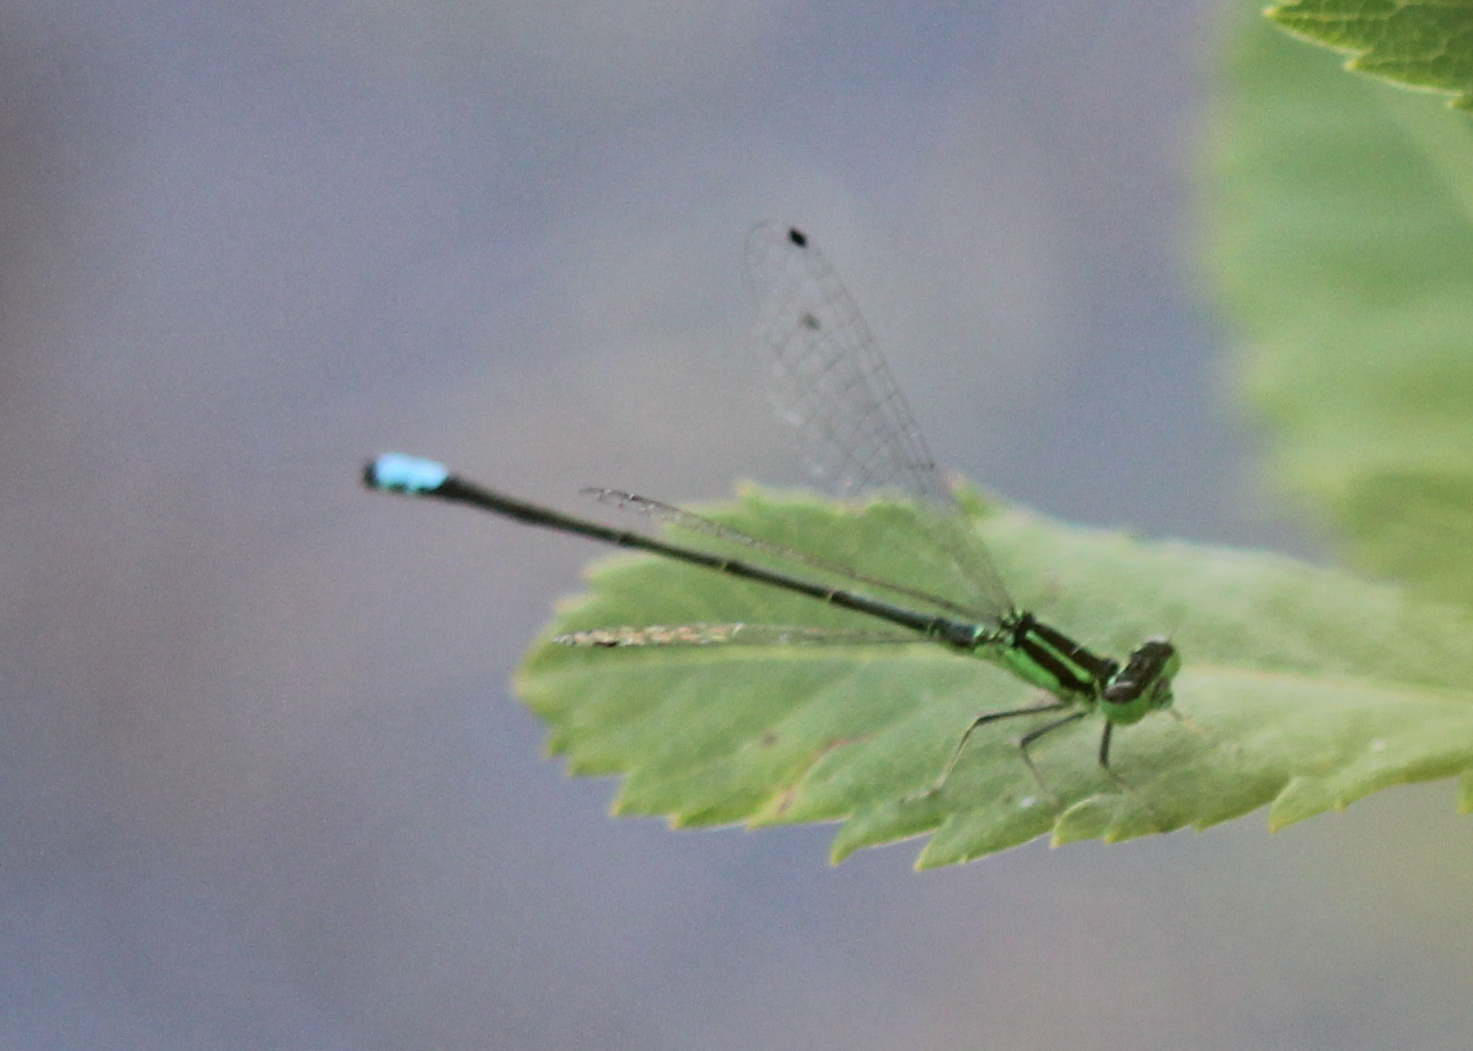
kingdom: Animalia
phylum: Arthropoda
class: Insecta
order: Odonata
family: Coenagrionidae
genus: Ischnura
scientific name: Ischnura verticalis
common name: Eastern forktail
